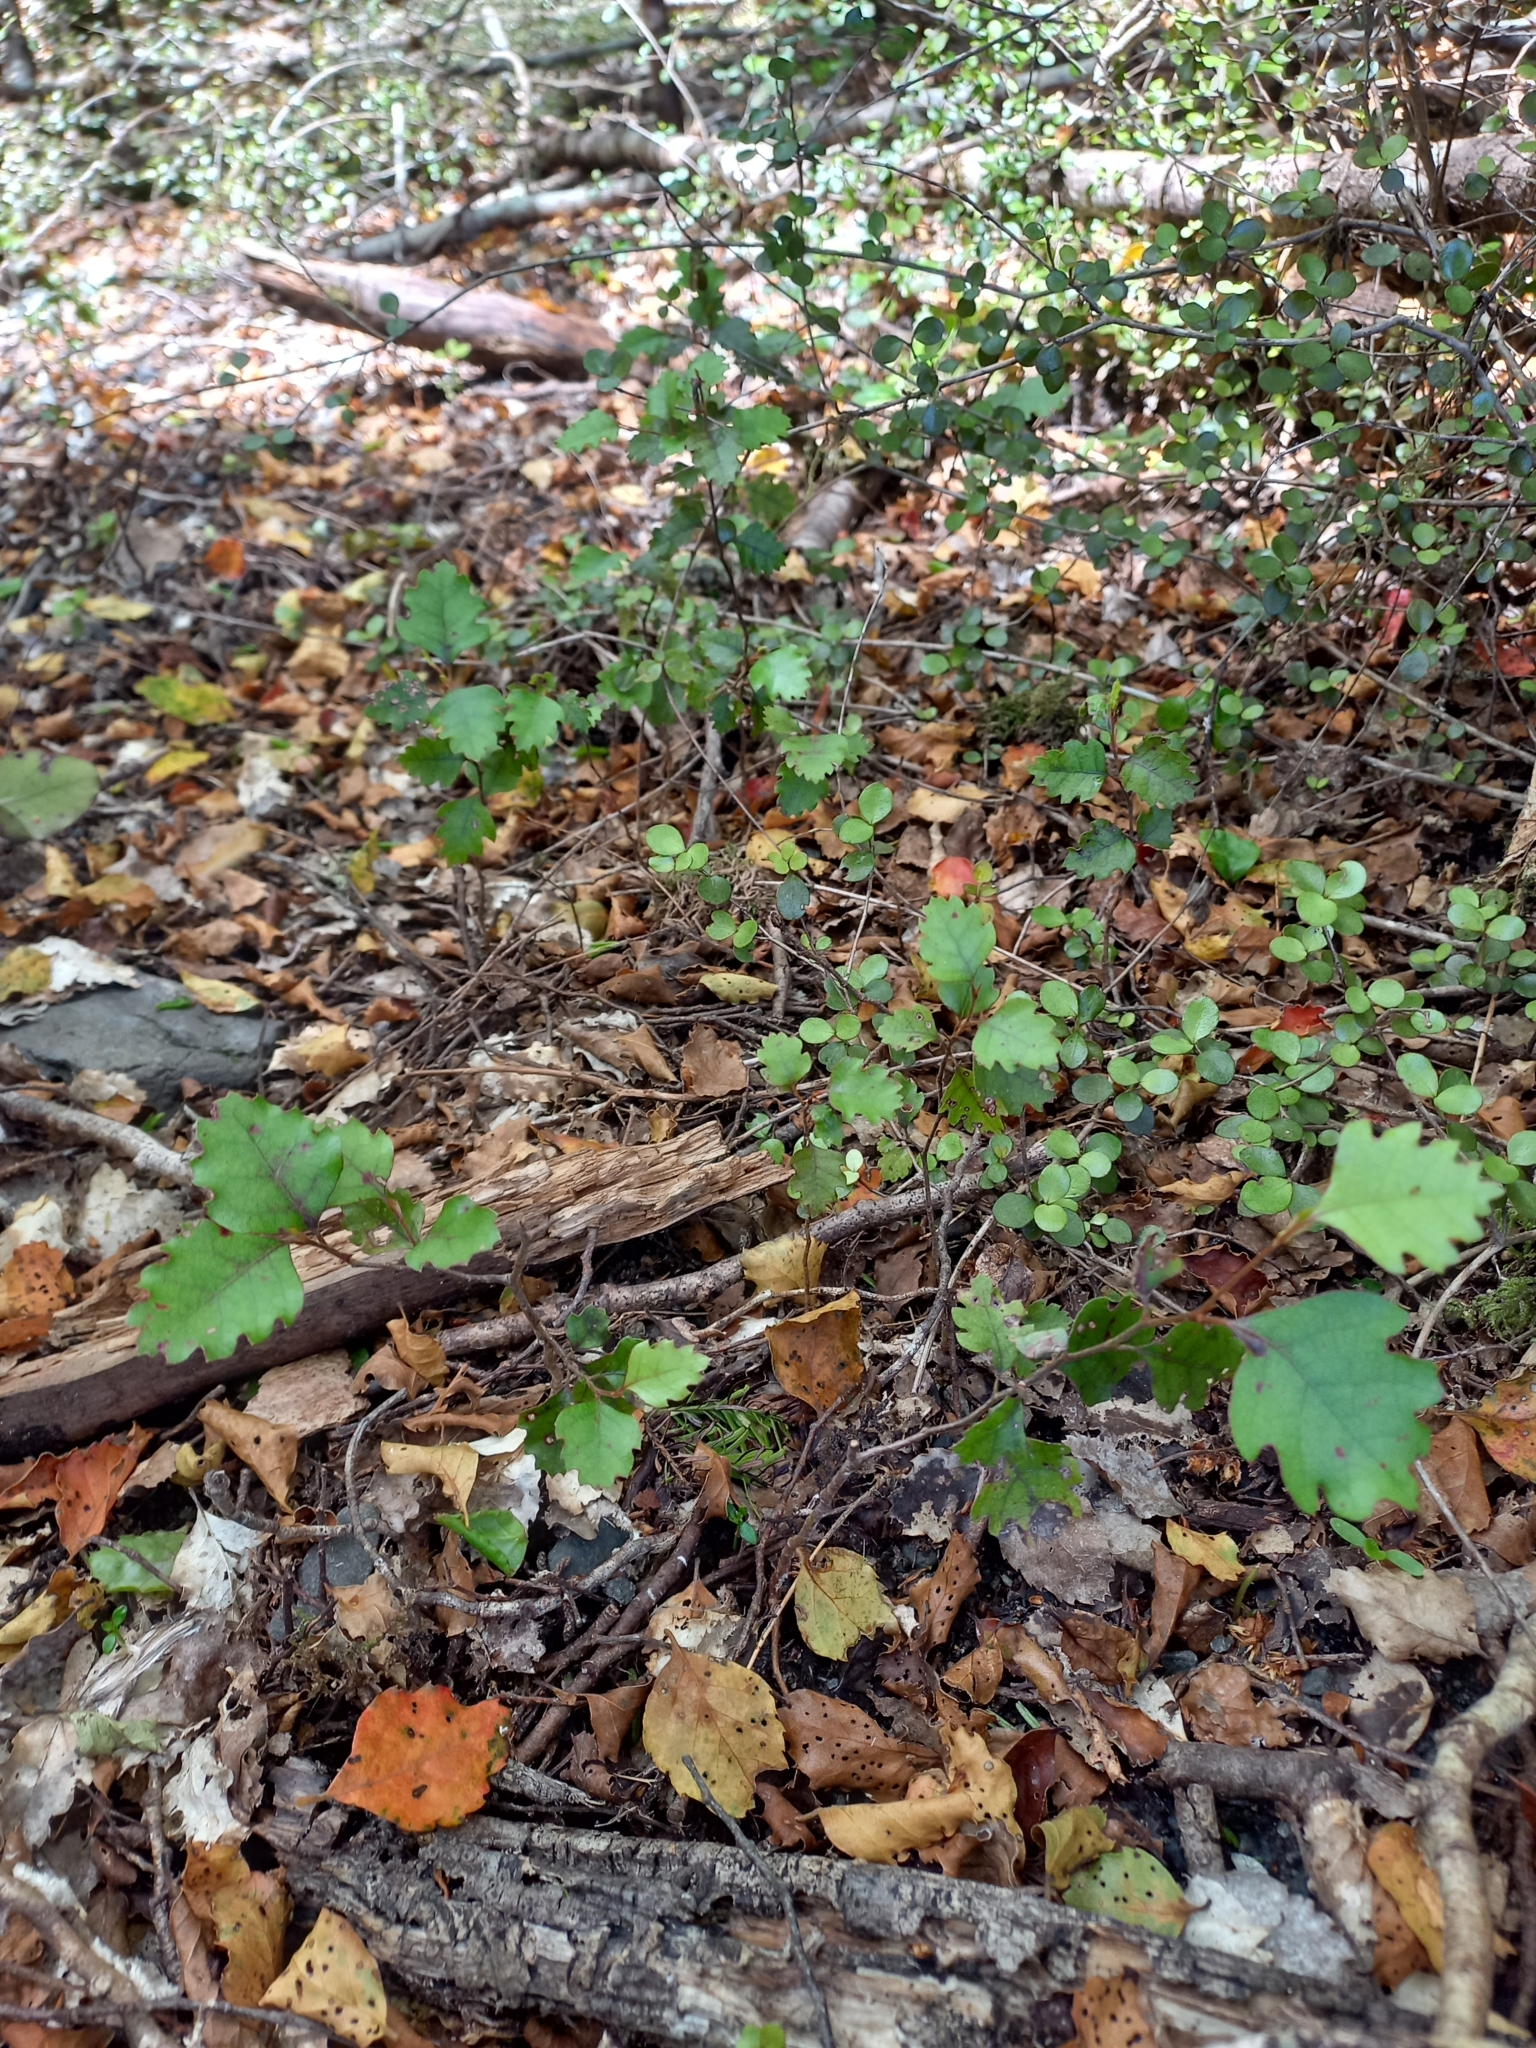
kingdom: Plantae
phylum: Tracheophyta
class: Magnoliopsida
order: Fagales
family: Nothofagaceae
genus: Nothofagus
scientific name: Nothofagus fusca
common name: Red beech
